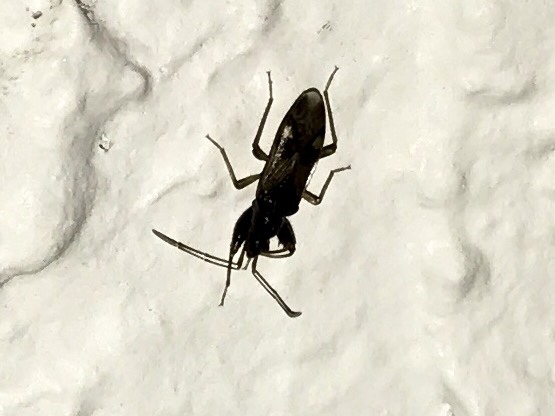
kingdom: Animalia
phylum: Arthropoda
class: Insecta
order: Hemiptera
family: Rhyparochromidae
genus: Pseudopamera
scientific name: Pseudopamera nitidula
